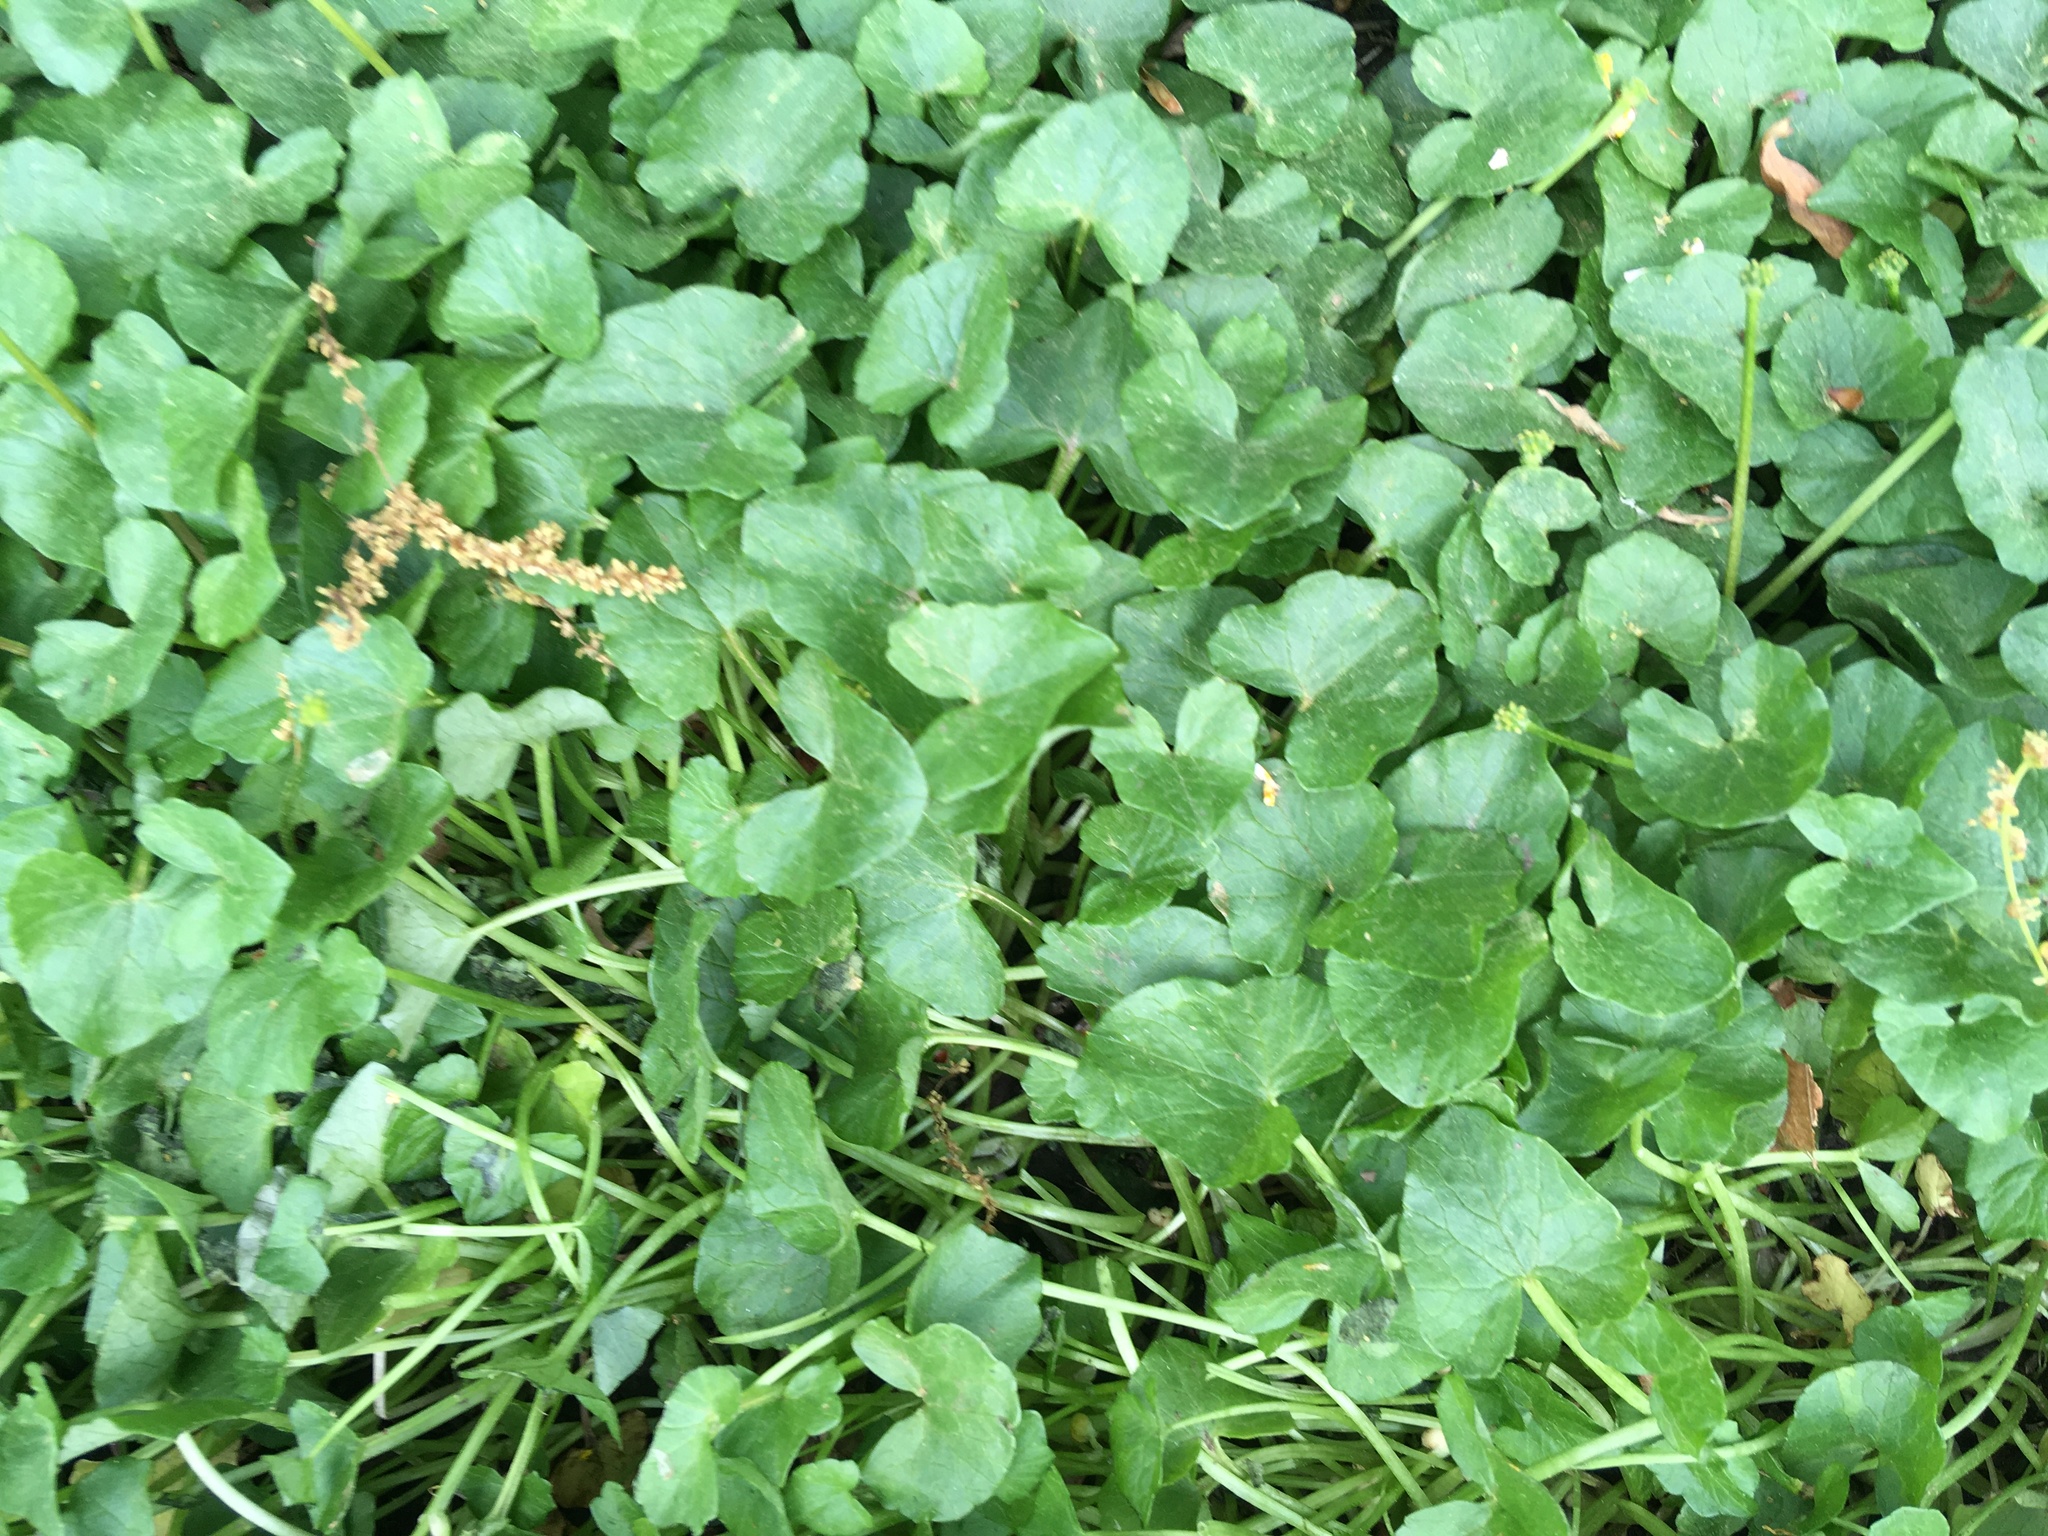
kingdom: Plantae
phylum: Tracheophyta
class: Magnoliopsida
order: Ranunculales
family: Ranunculaceae
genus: Ficaria
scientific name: Ficaria verna
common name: Lesser celandine
